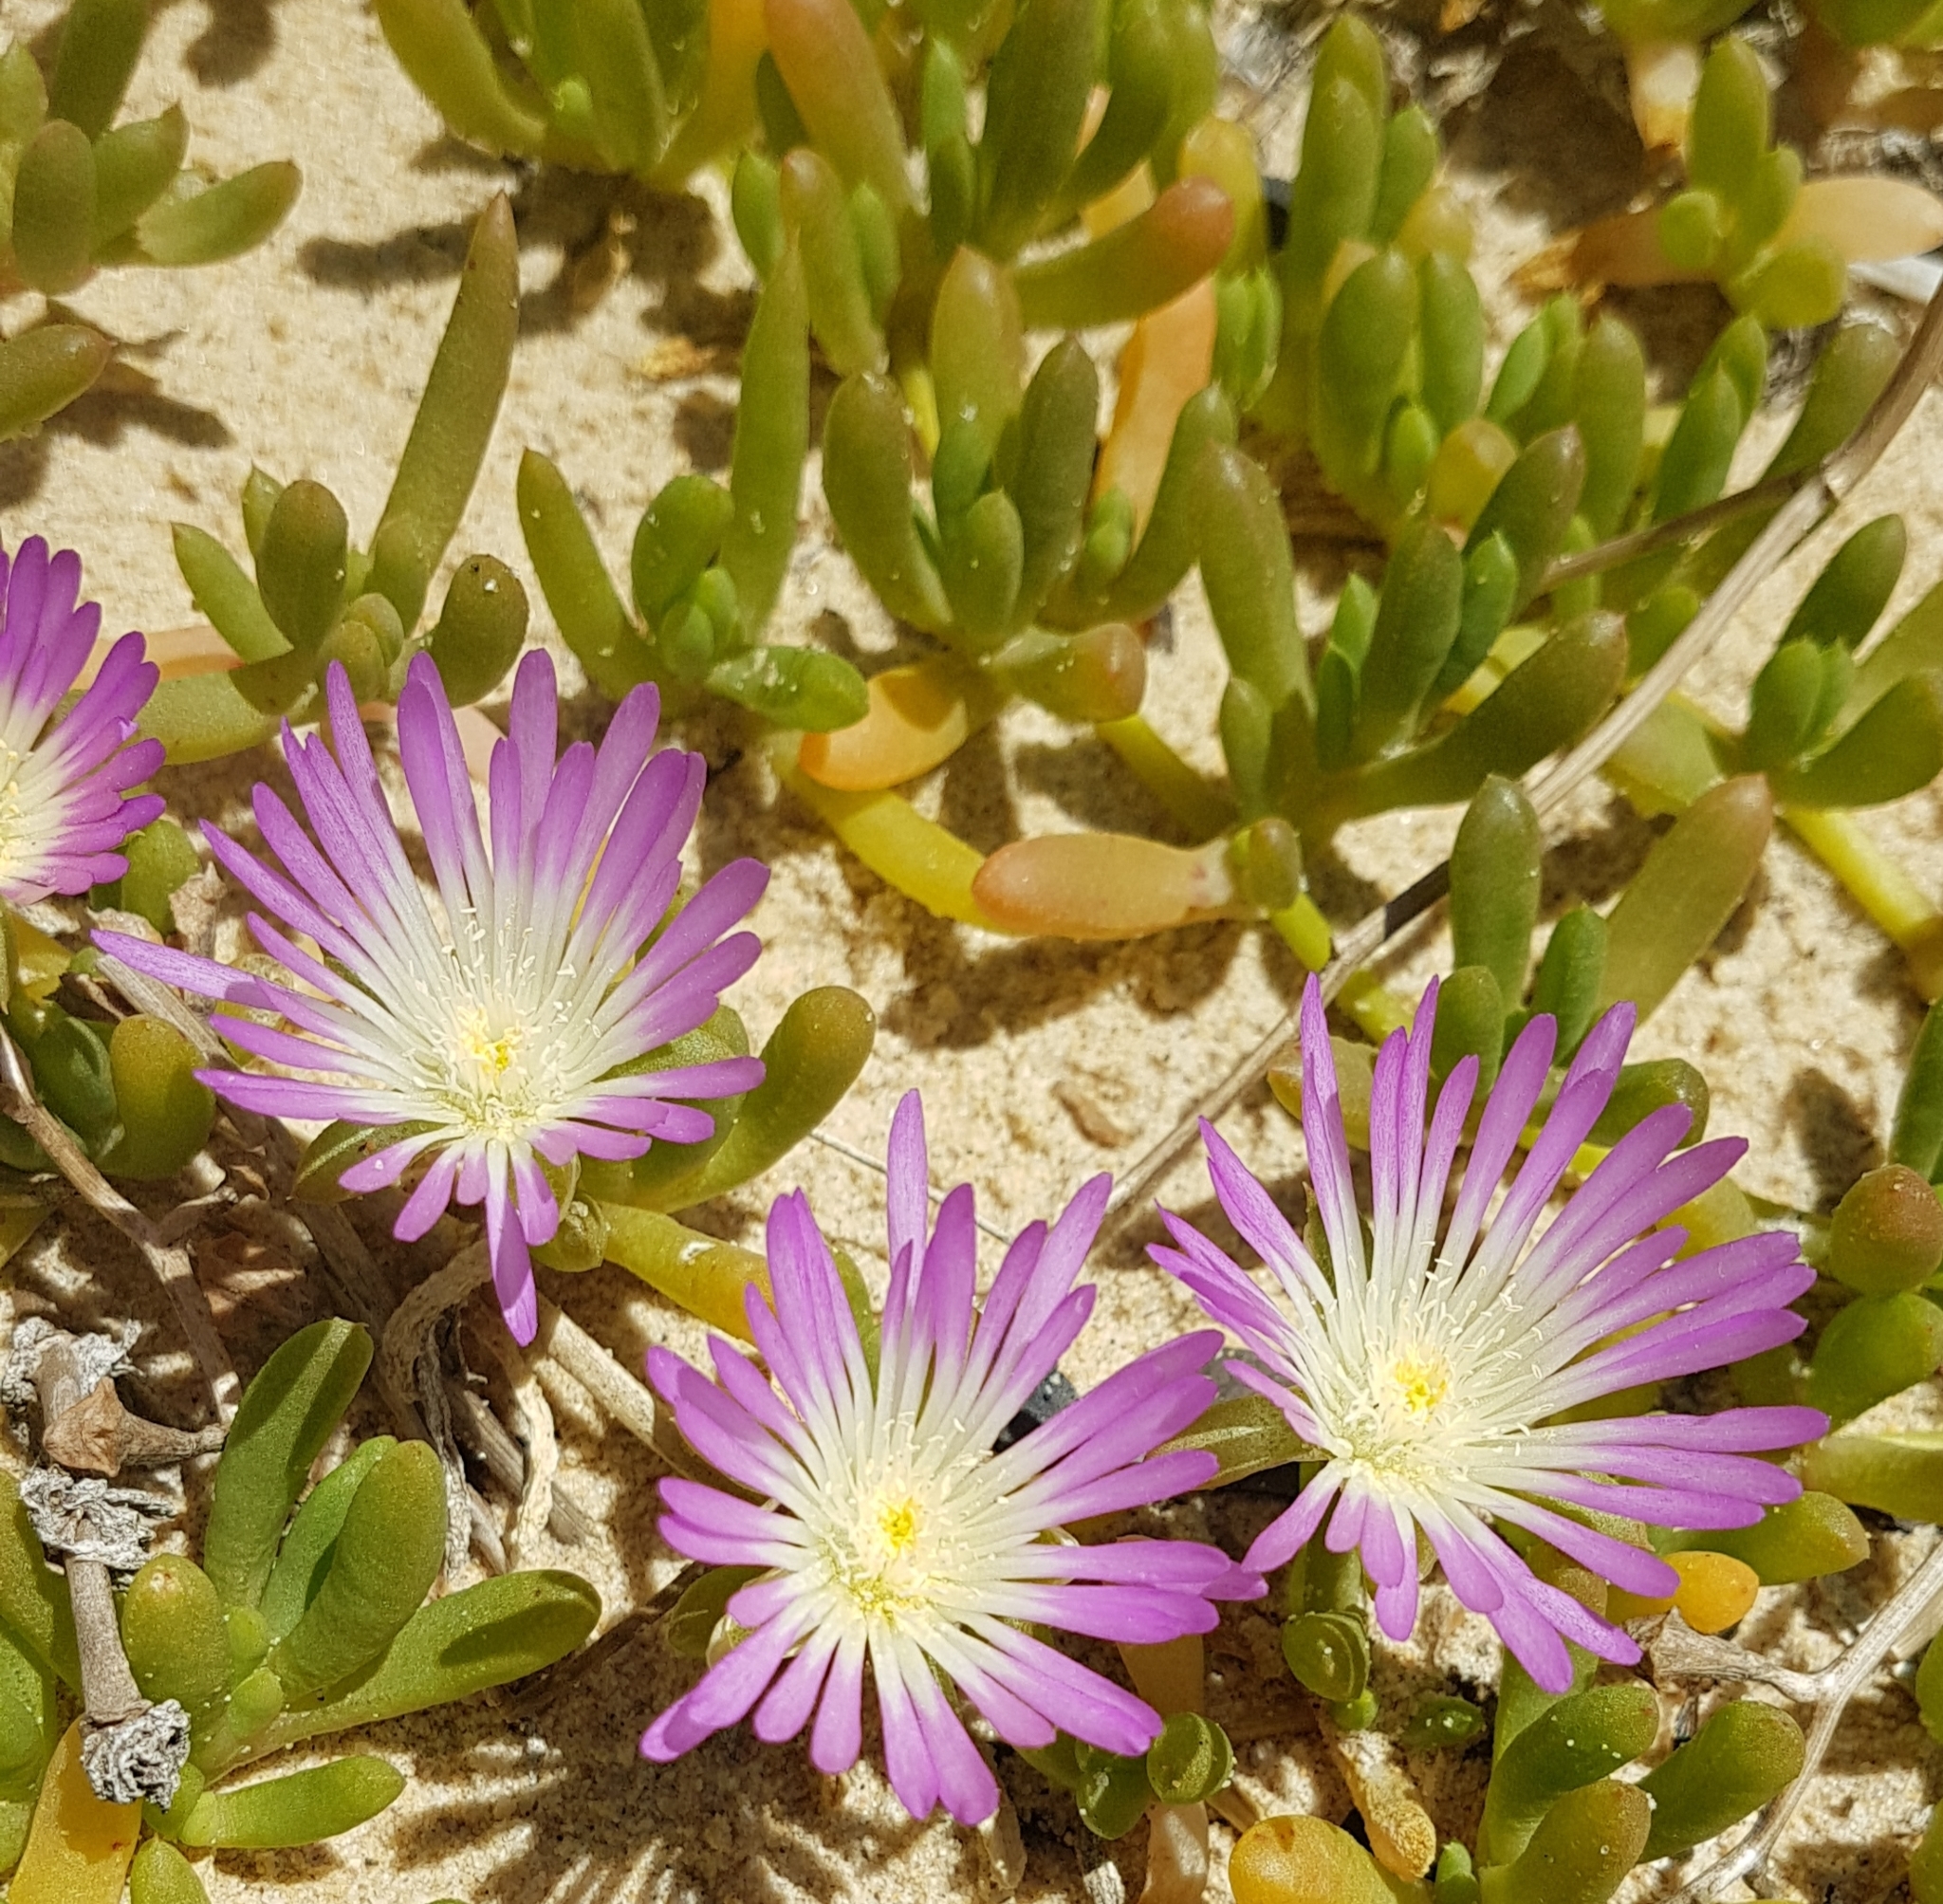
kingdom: Plantae
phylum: Tracheophyta
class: Magnoliopsida
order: Caryophyllales
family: Aizoaceae
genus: Disphyma
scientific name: Disphyma crassifolium
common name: Purple dewplant
